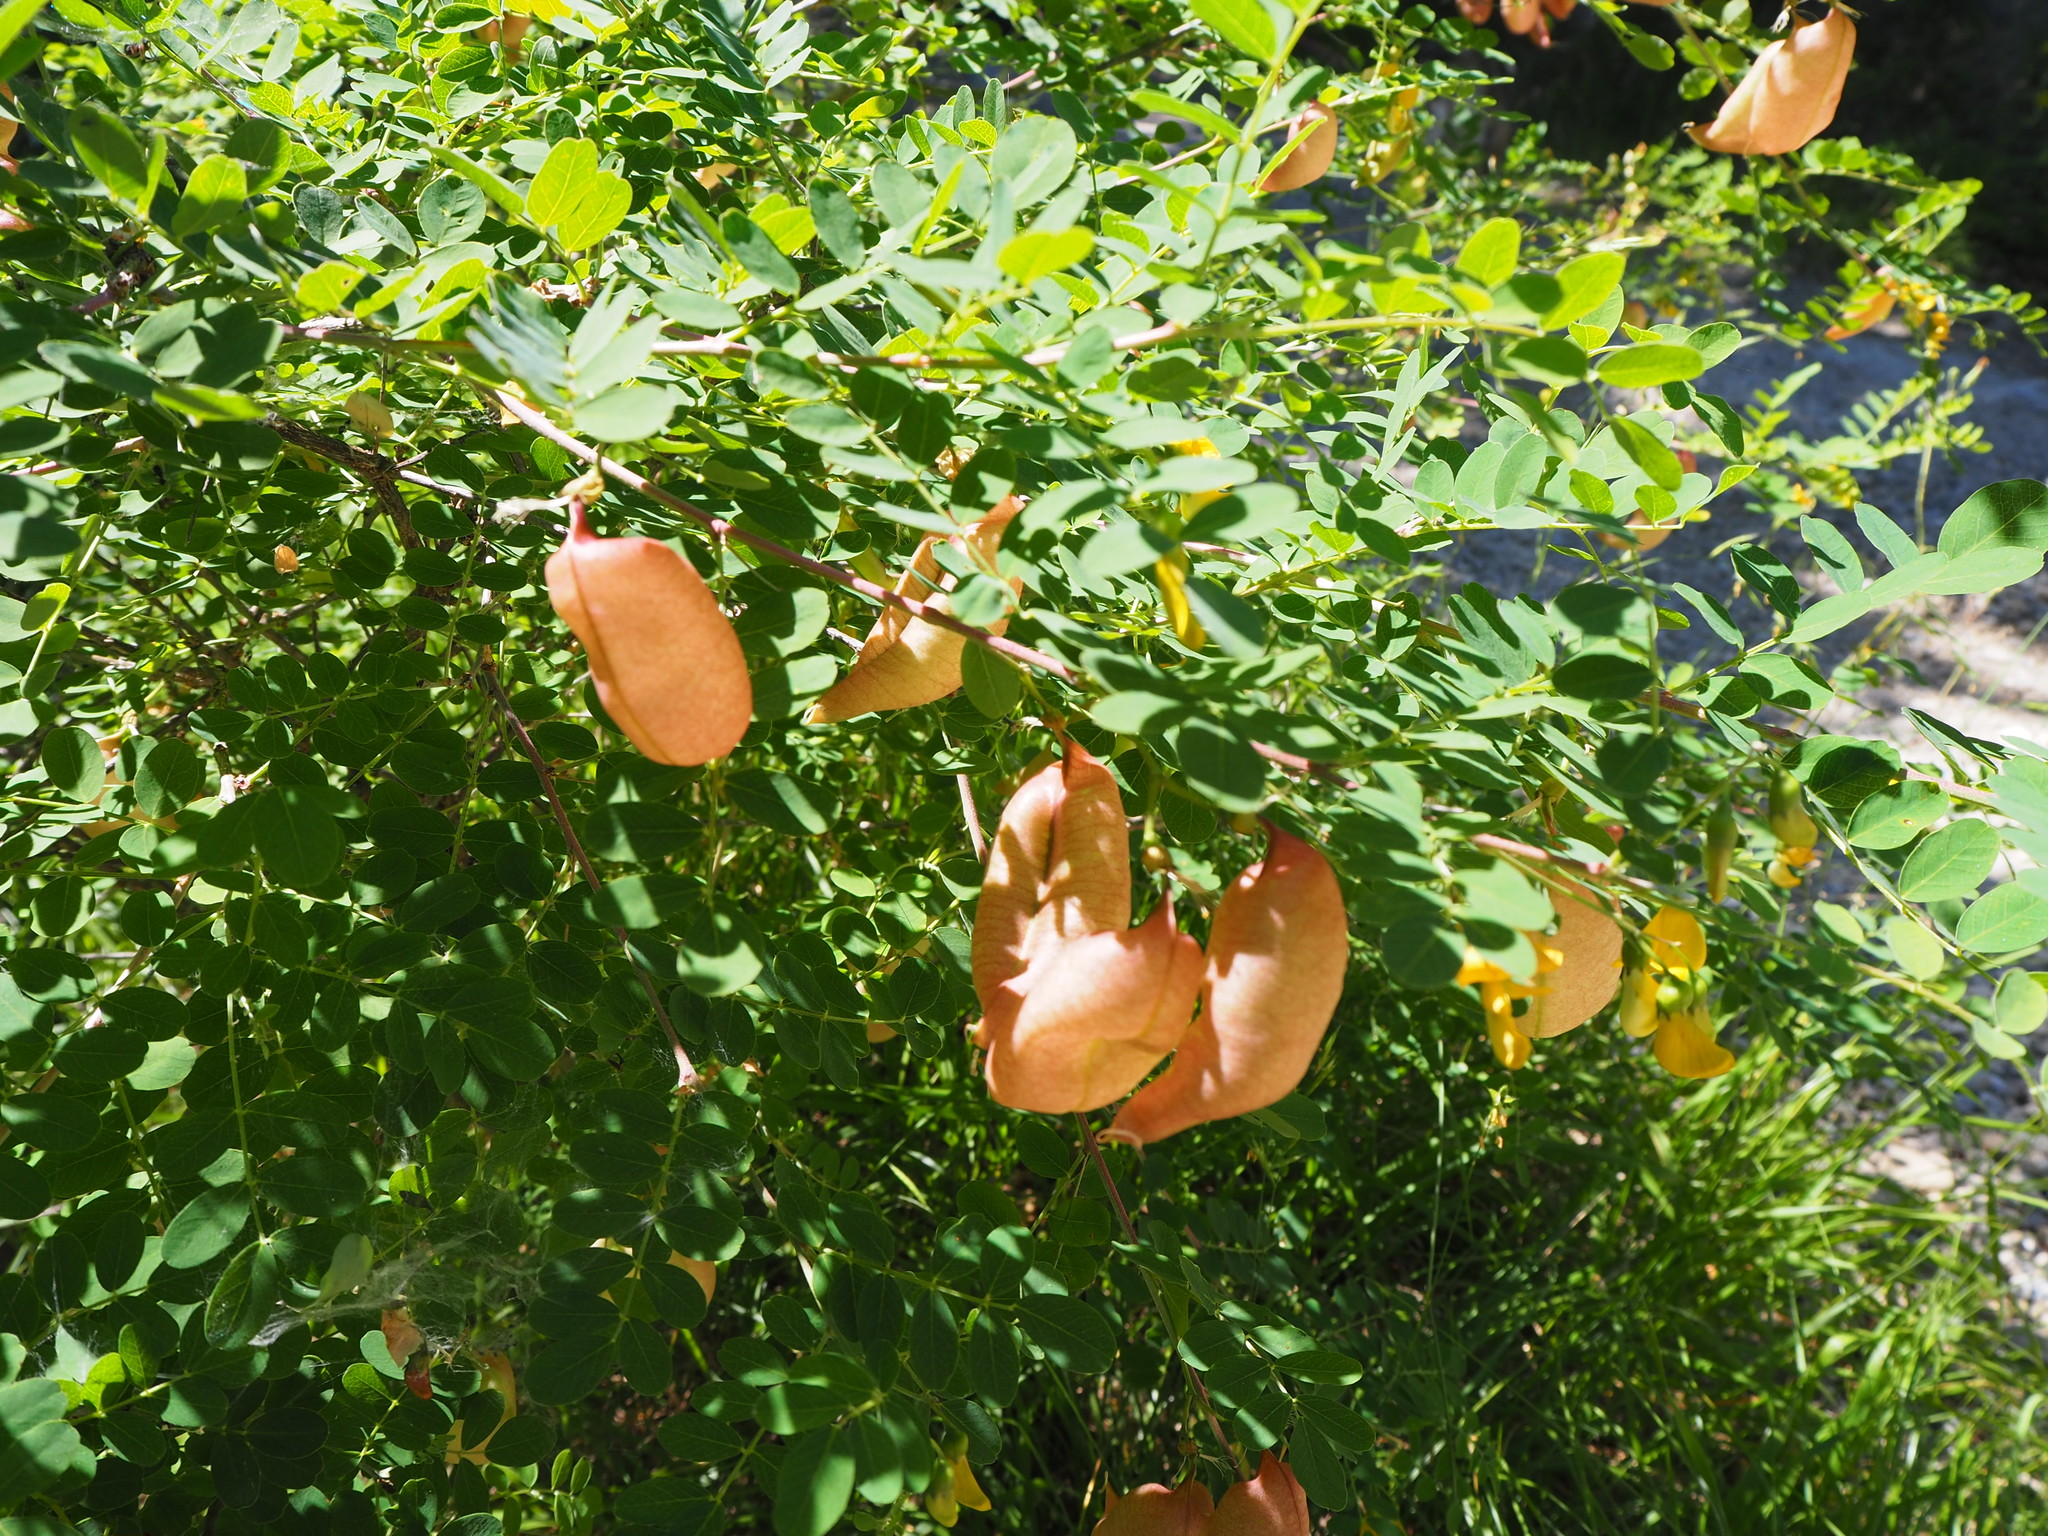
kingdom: Plantae
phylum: Tracheophyta
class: Magnoliopsida
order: Fabales
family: Fabaceae
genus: Colutea
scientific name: Colutea arborescens
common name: Bladder-senna
